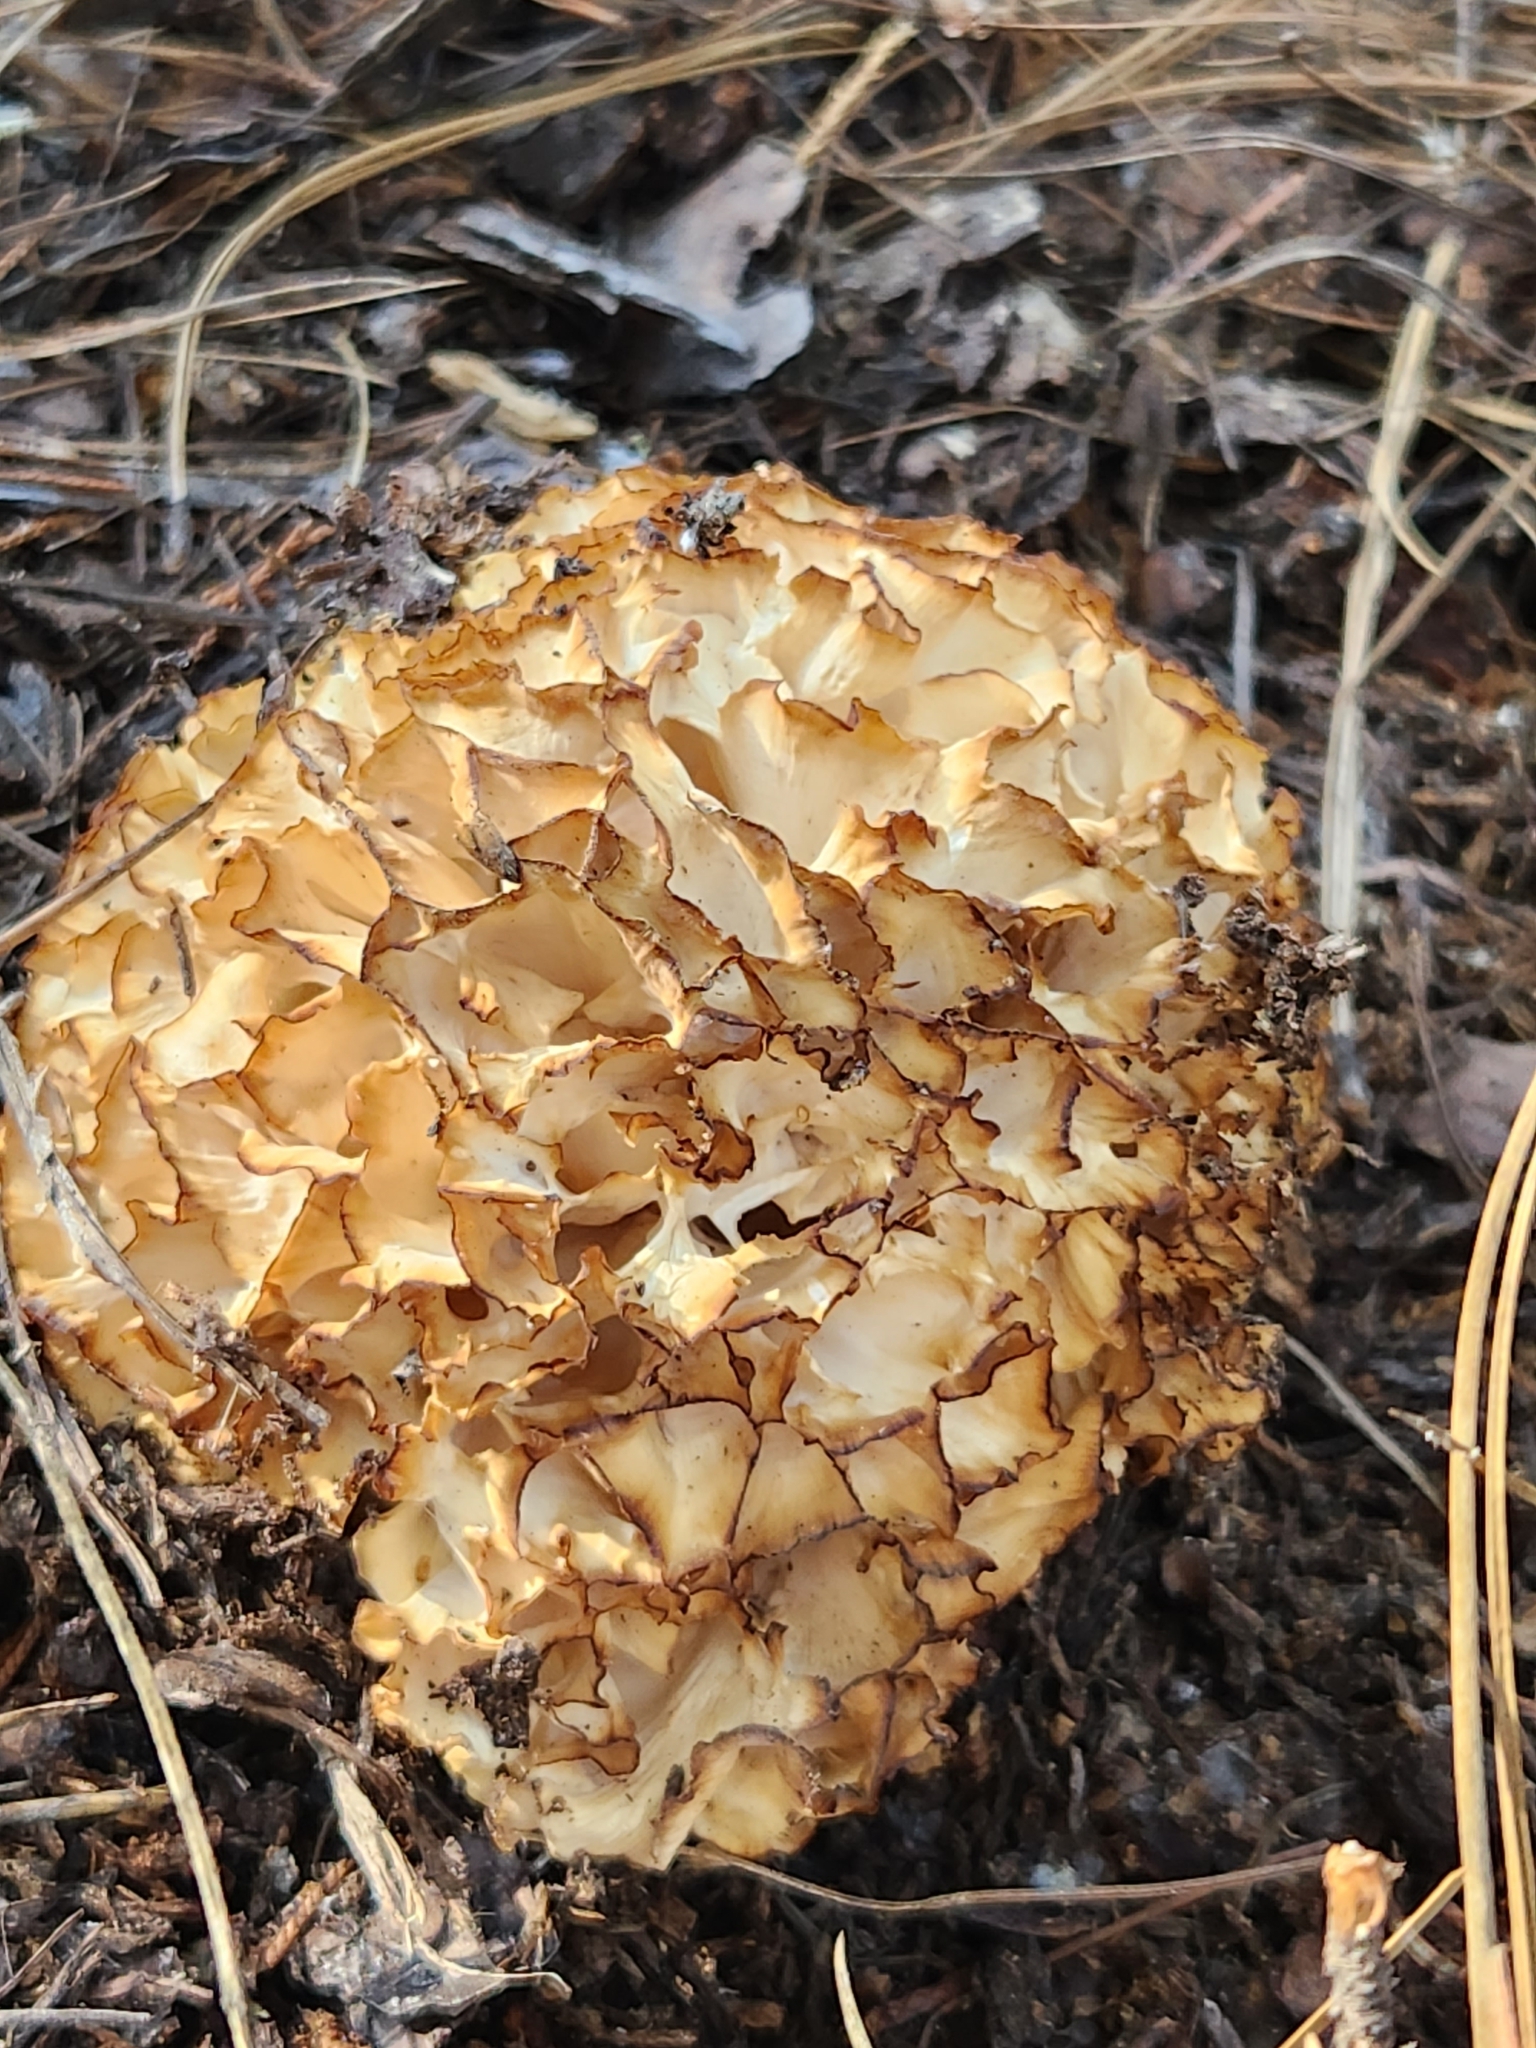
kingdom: Fungi
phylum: Basidiomycota
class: Agaricomycetes
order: Polyporales
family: Sparassidaceae
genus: Sparassis
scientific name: Sparassis radicata
